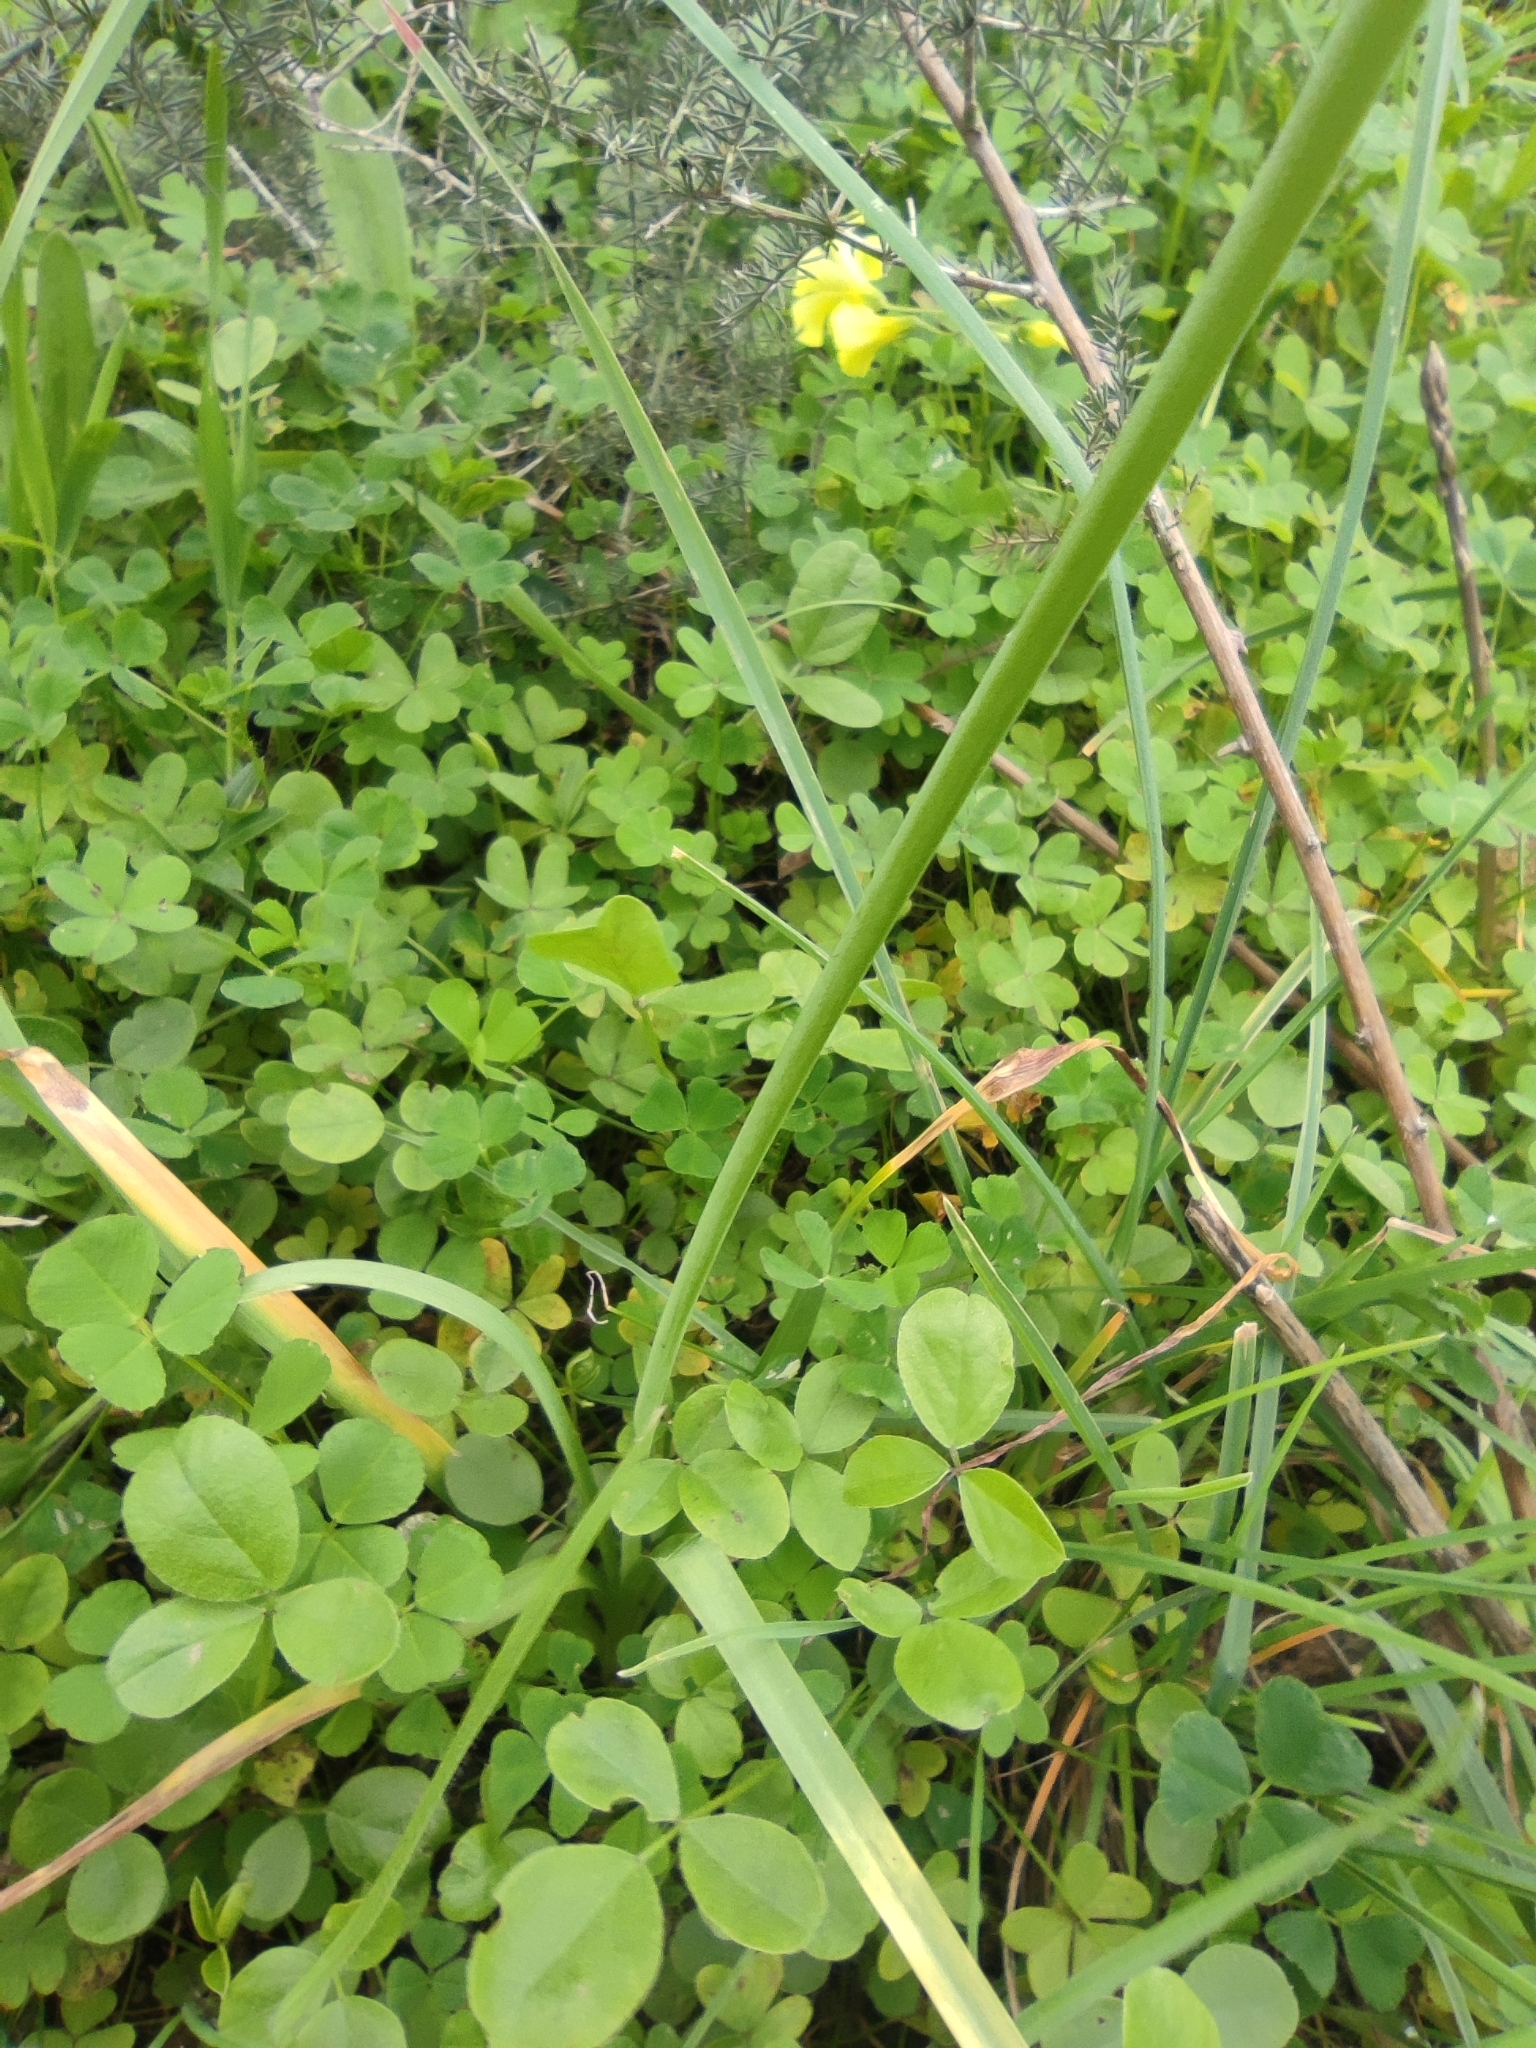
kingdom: Plantae
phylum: Tracheophyta
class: Liliopsida
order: Asparagales
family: Amaryllidaceae
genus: Allium
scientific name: Allium roseum
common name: Rosy garlic
